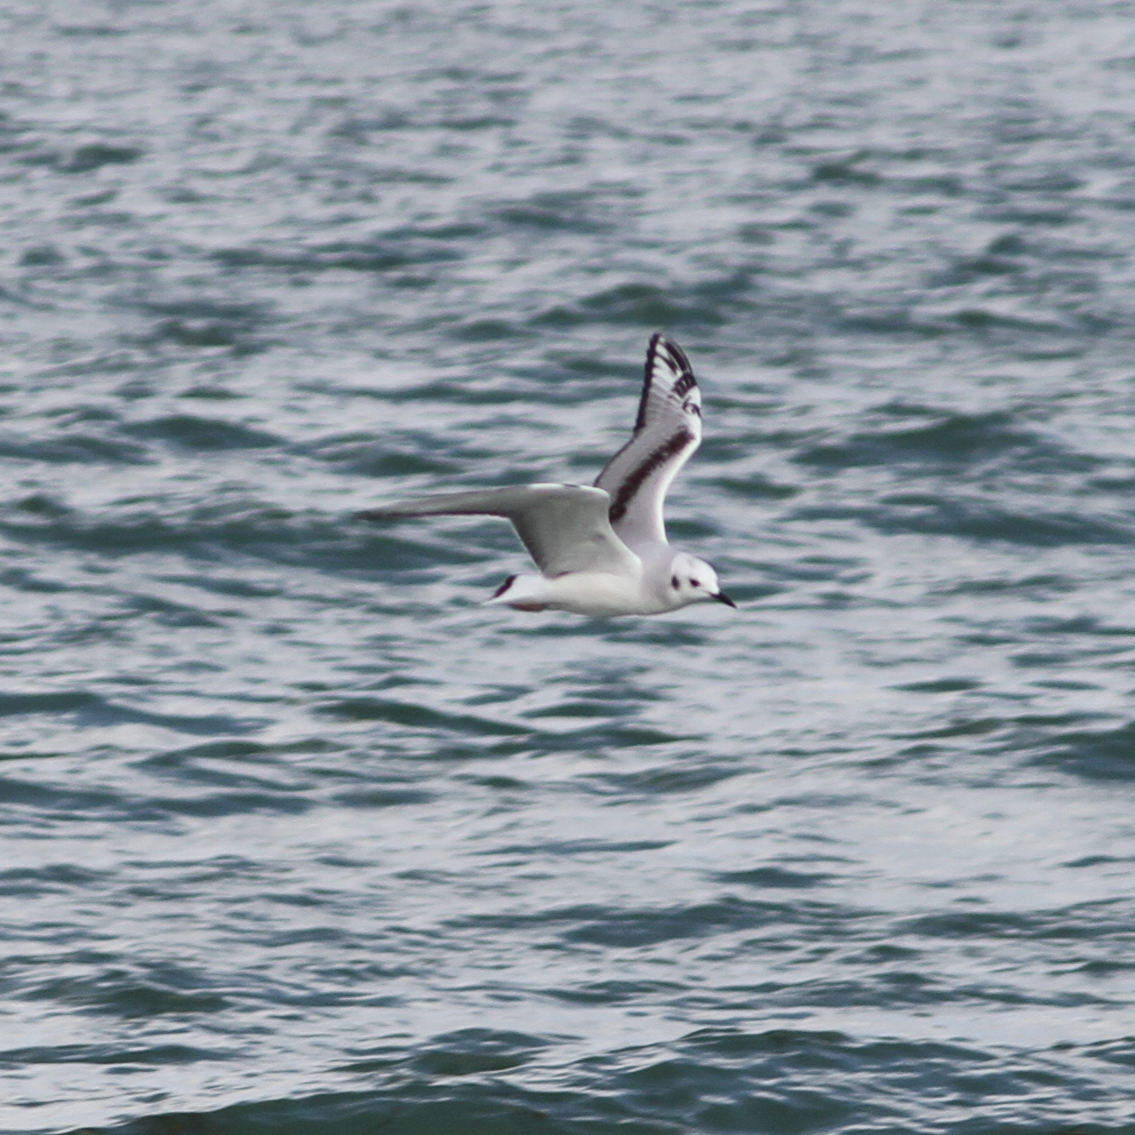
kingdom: Animalia
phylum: Chordata
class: Aves
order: Charadriiformes
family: Laridae
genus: Chroicocephalus
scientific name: Chroicocephalus philadelphia
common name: Bonaparte's gull
